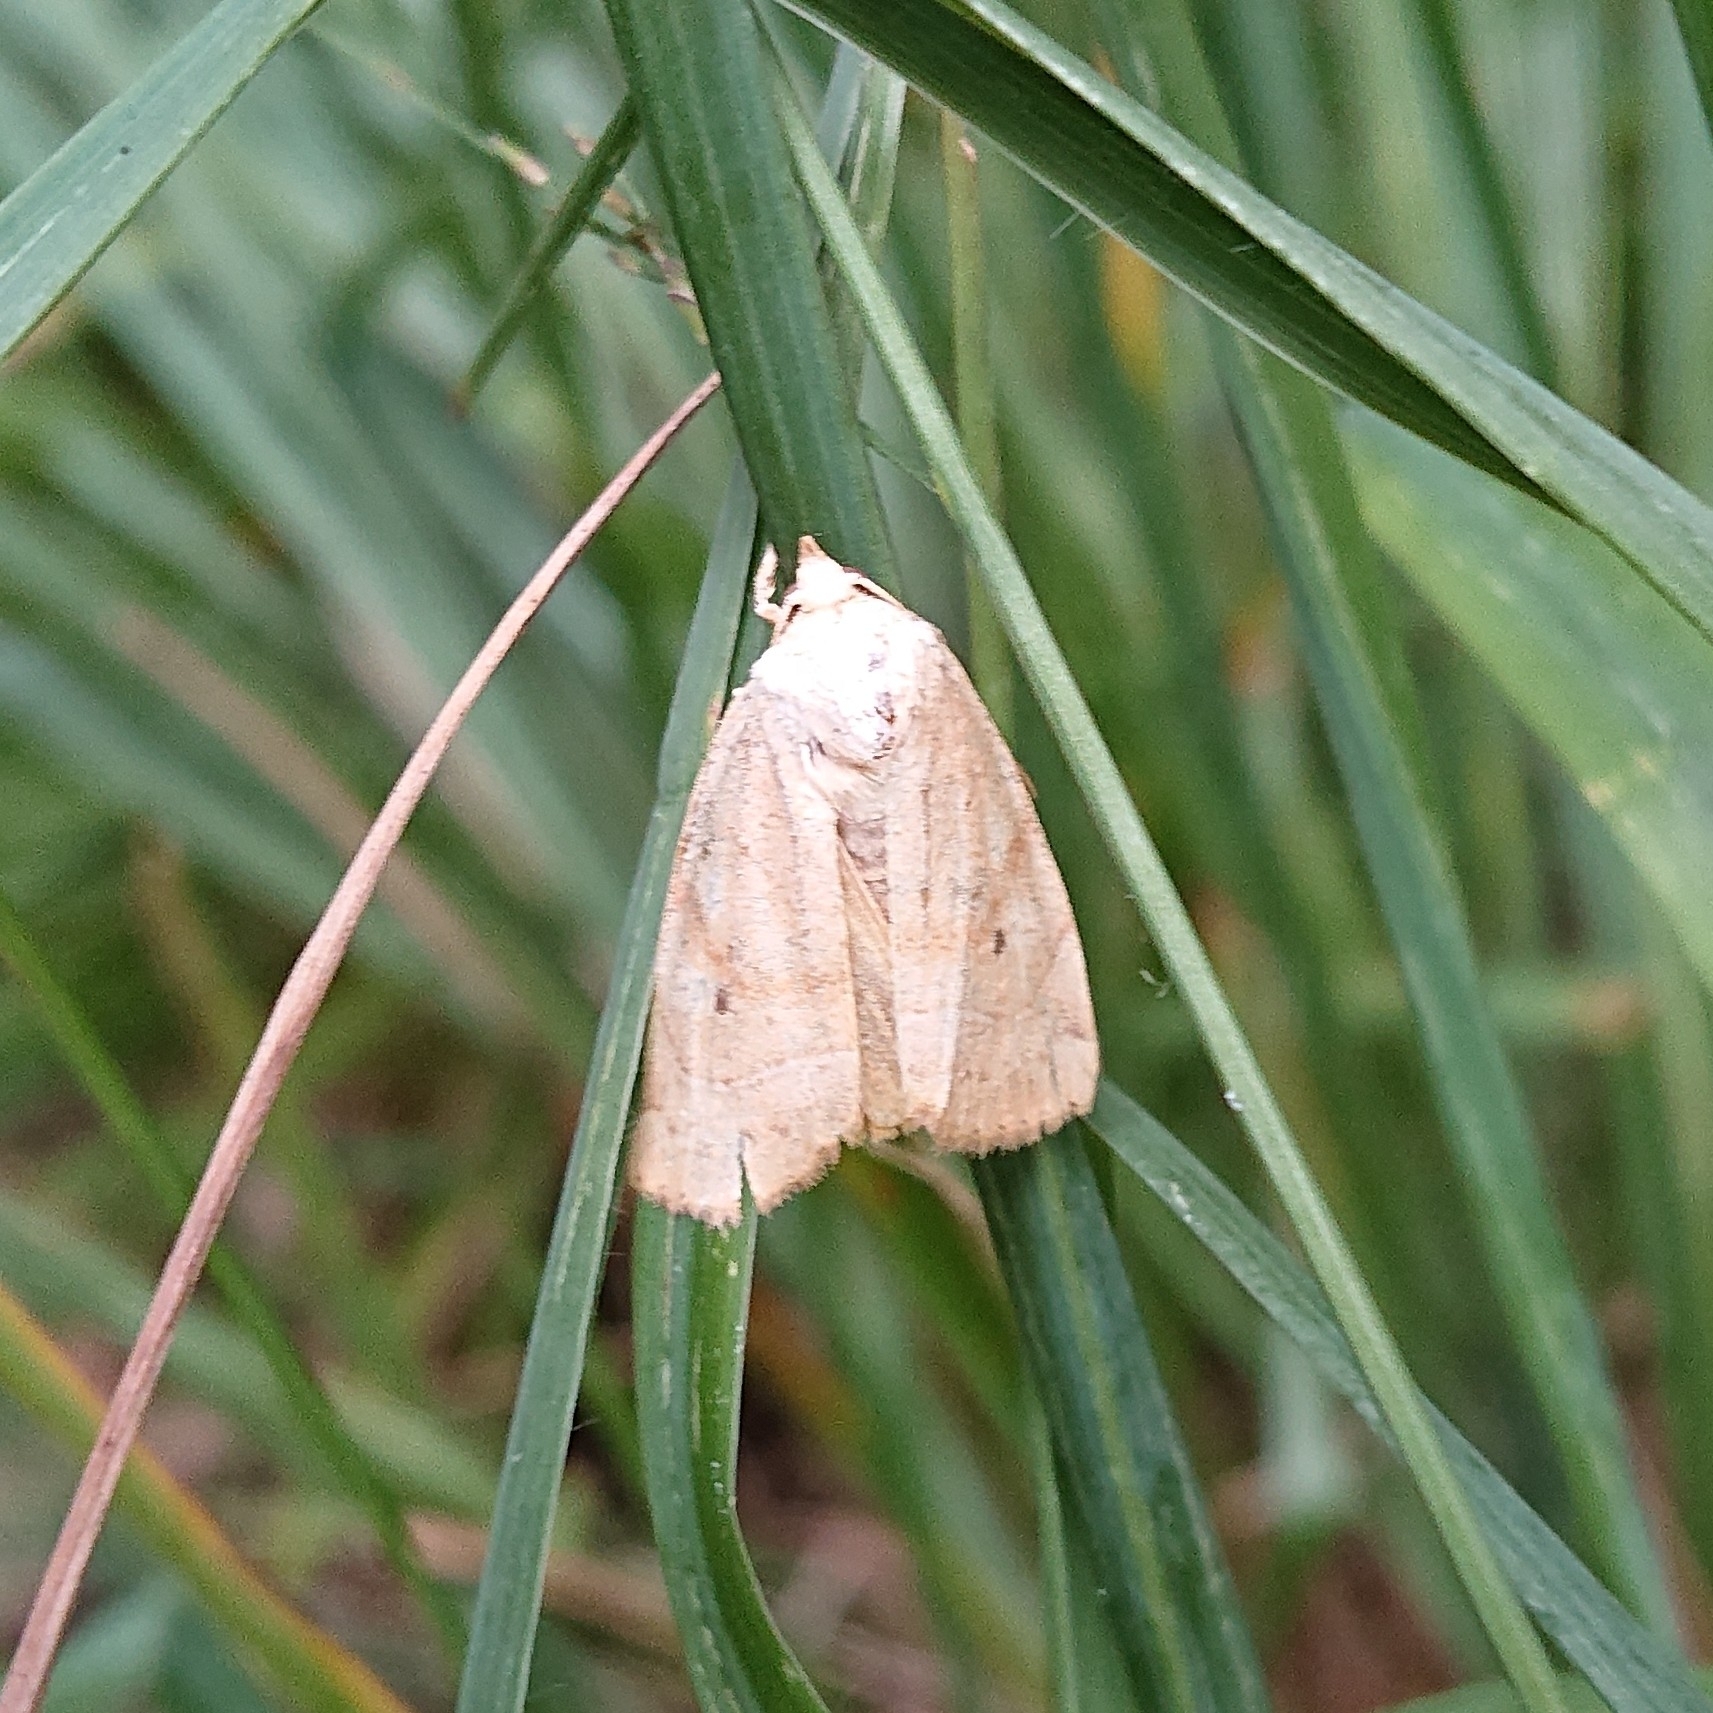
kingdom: Animalia
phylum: Arthropoda
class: Insecta
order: Lepidoptera
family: Noctuidae
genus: Cosmia
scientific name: Cosmia trapezina
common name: Dun-bar
